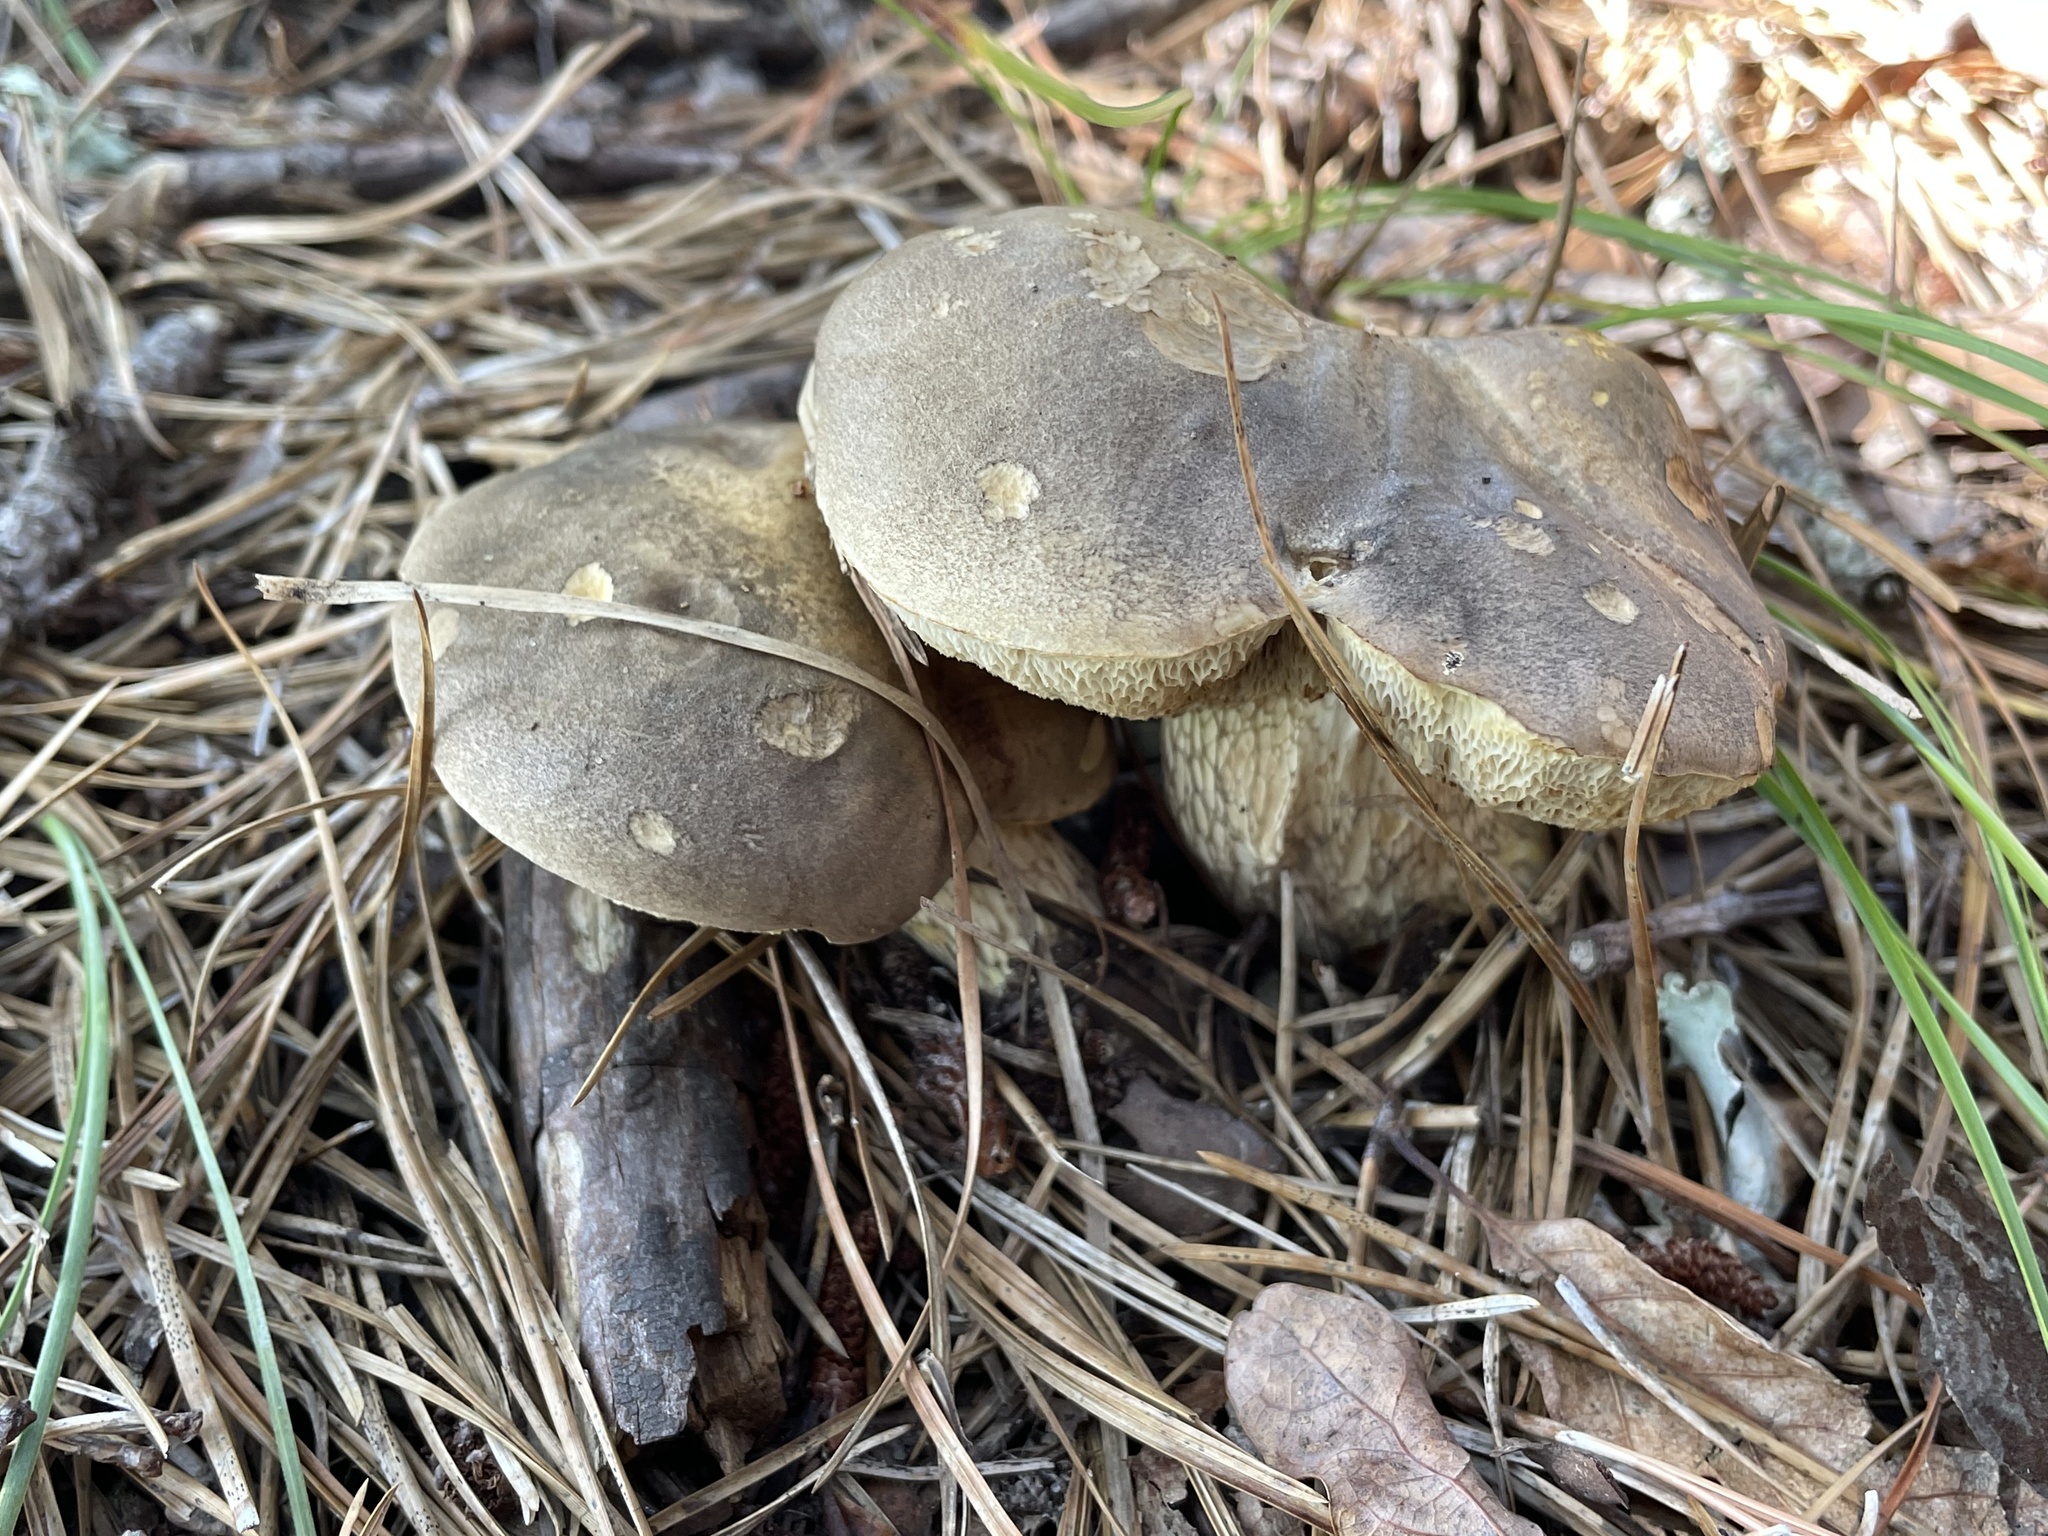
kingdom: Fungi
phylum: Basidiomycota
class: Agaricomycetes
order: Boletales
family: Boletaceae
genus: Retiboletus
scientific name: Retiboletus vinaceipes
